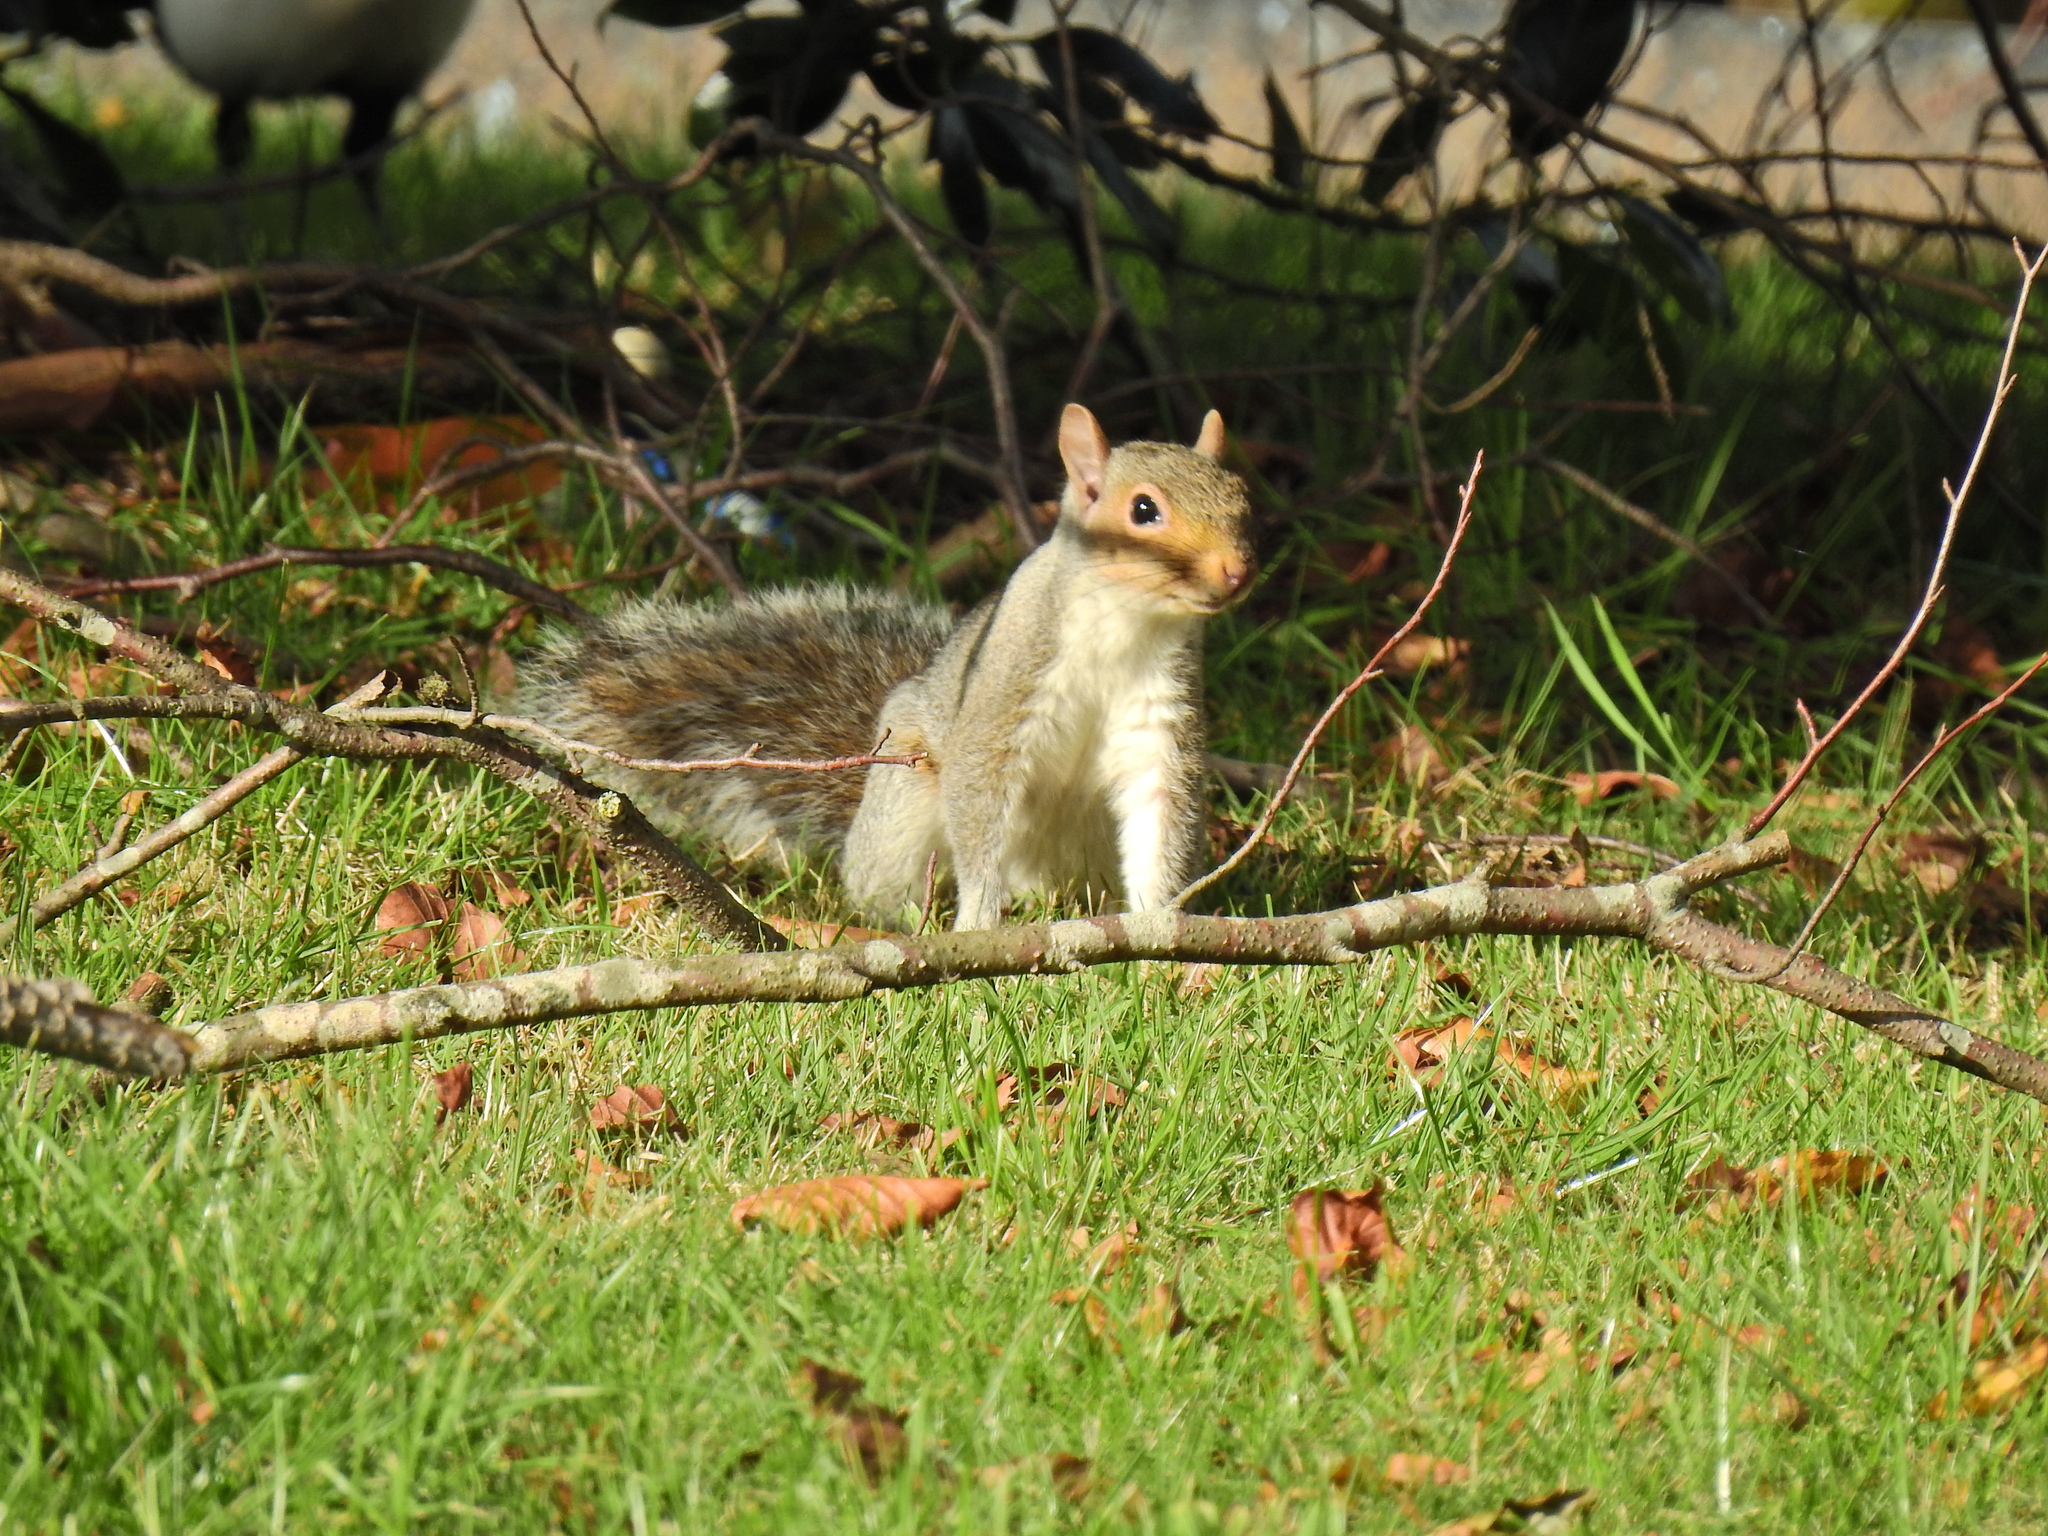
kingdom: Animalia
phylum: Chordata
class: Mammalia
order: Rodentia
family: Sciuridae
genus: Sciurus
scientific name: Sciurus carolinensis
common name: Eastern gray squirrel
